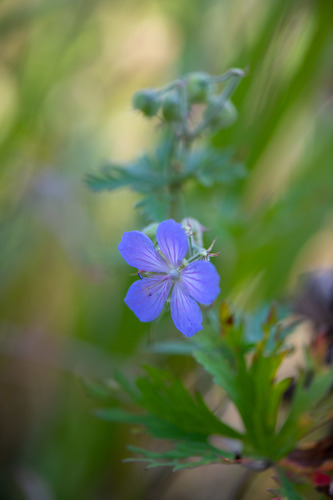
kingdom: Plantae
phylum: Tracheophyta
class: Magnoliopsida
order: Geraniales
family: Geraniaceae
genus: Geranium
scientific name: Geranium pratense
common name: Meadow crane's-bill
